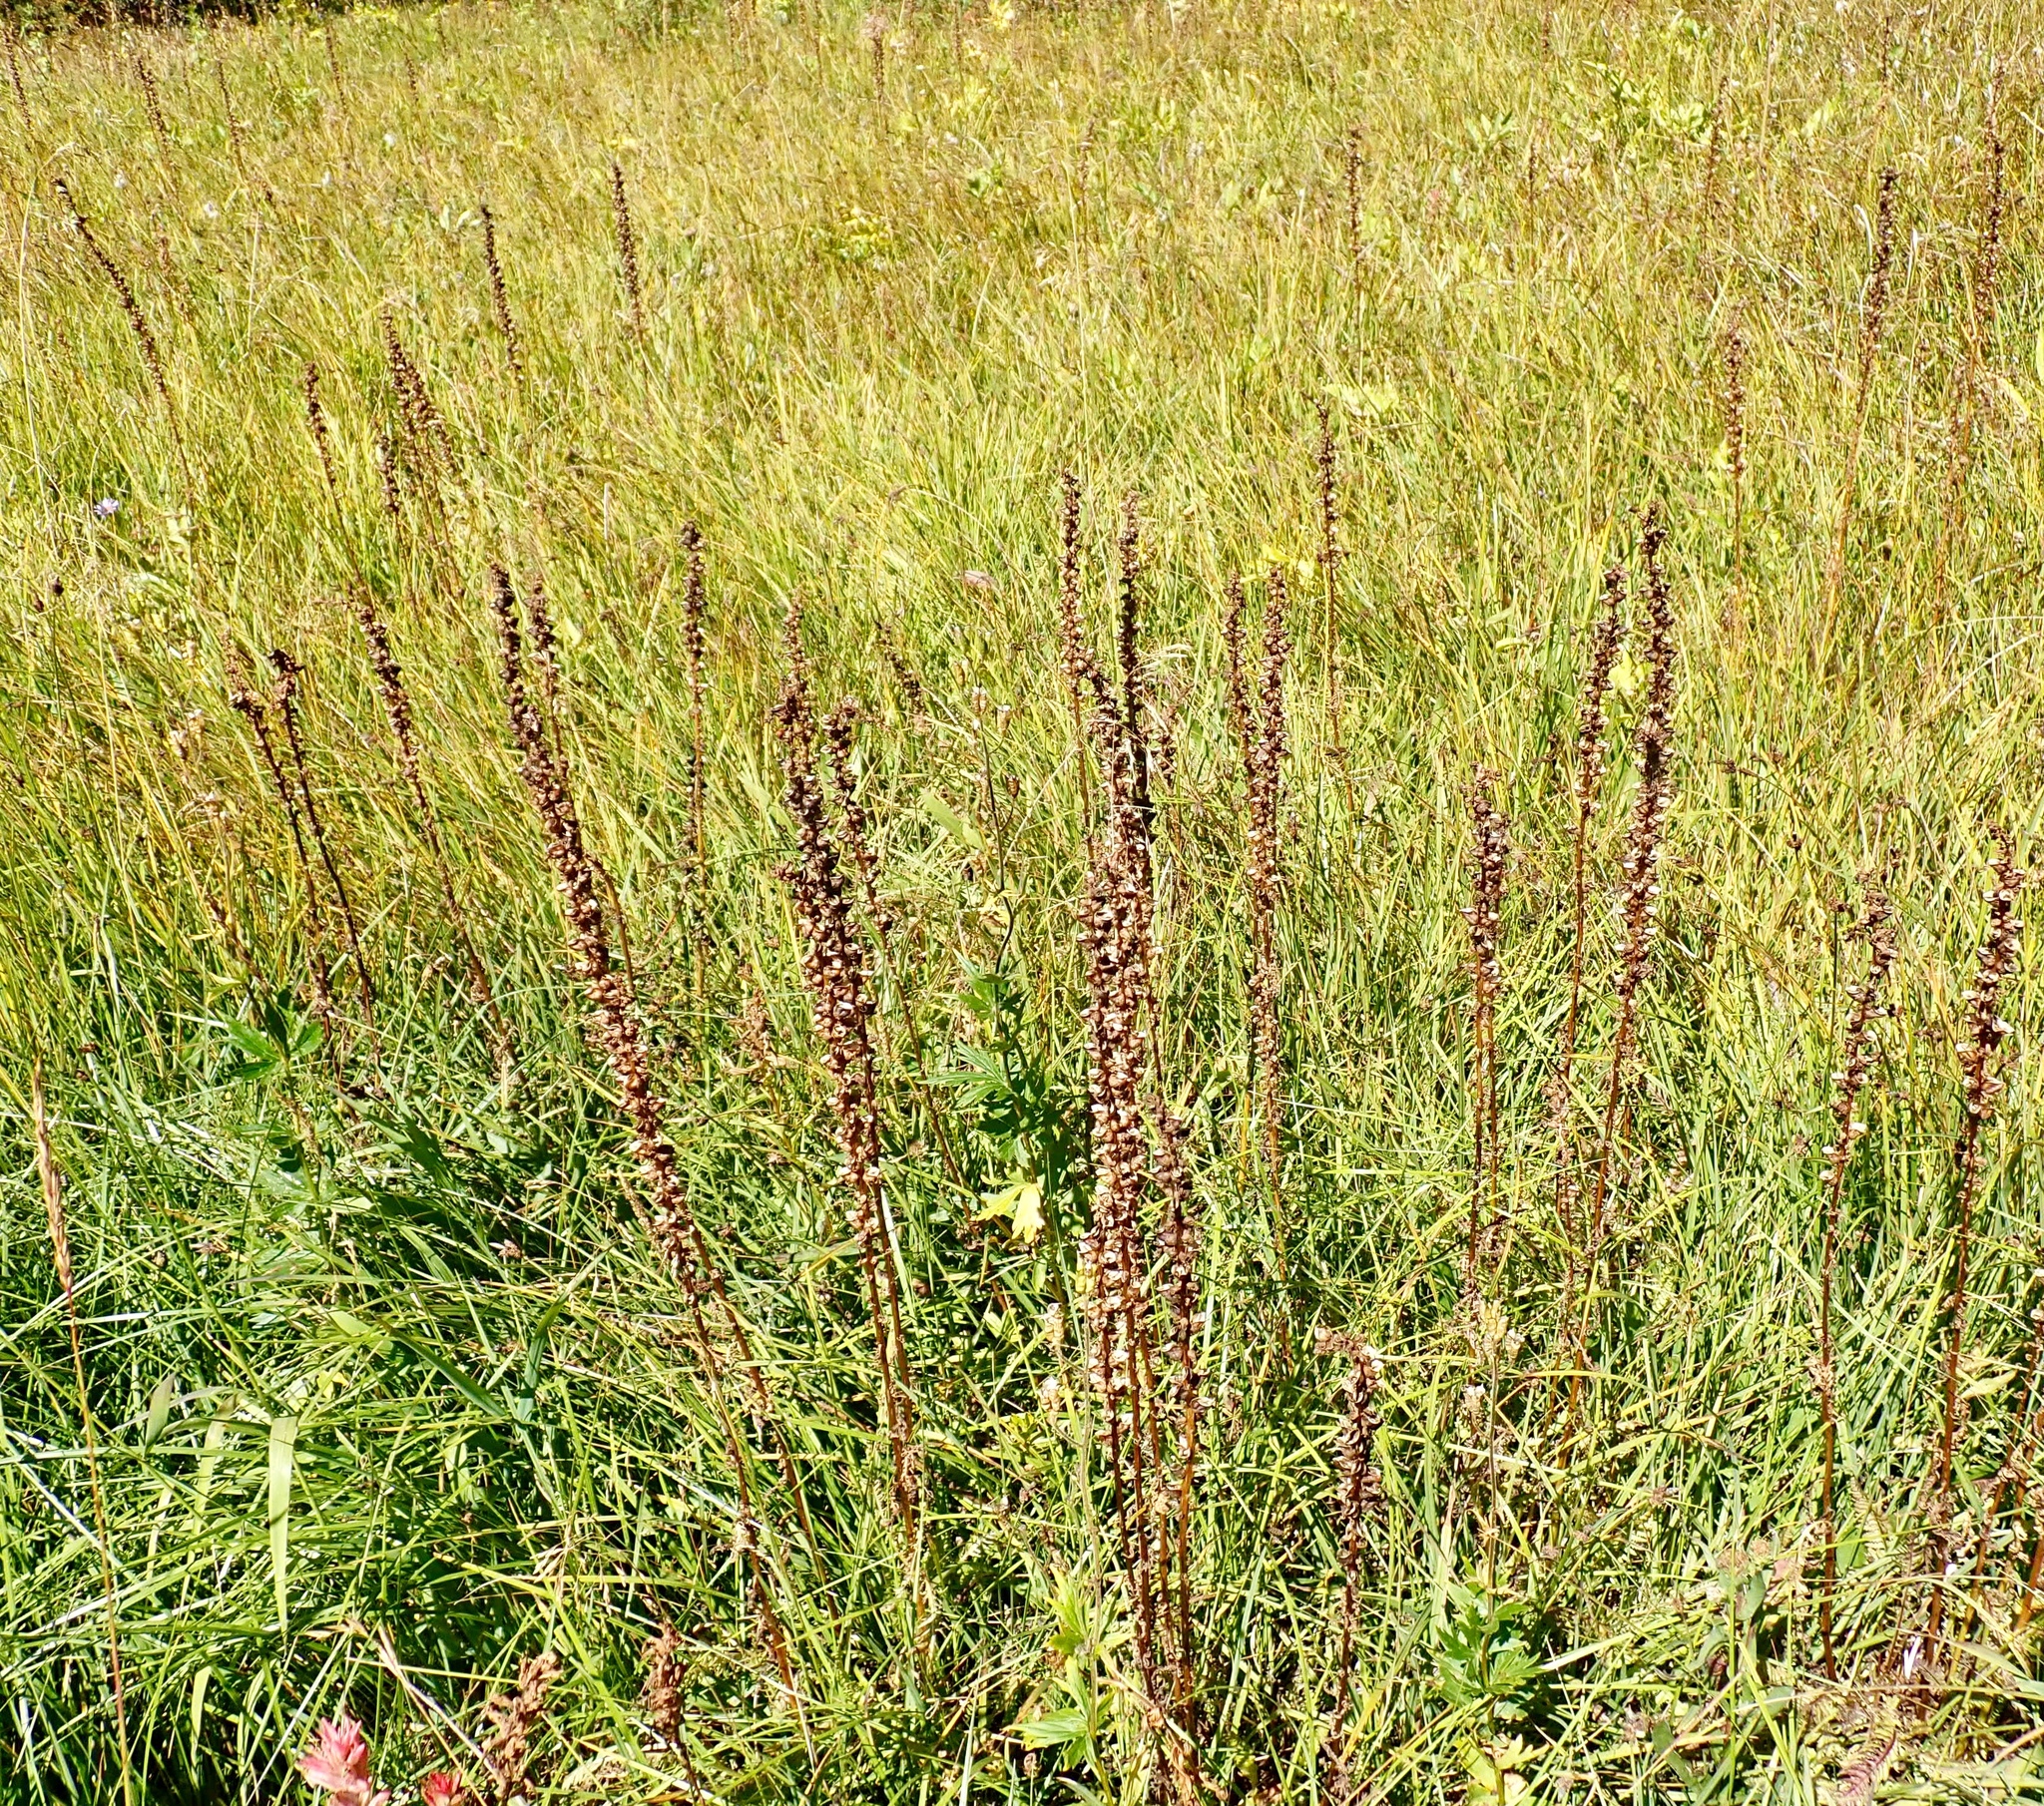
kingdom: Plantae
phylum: Tracheophyta
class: Magnoliopsida
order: Lamiales
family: Orobanchaceae
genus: Pedicularis
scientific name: Pedicularis groenlandica
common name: Elephant's-head
